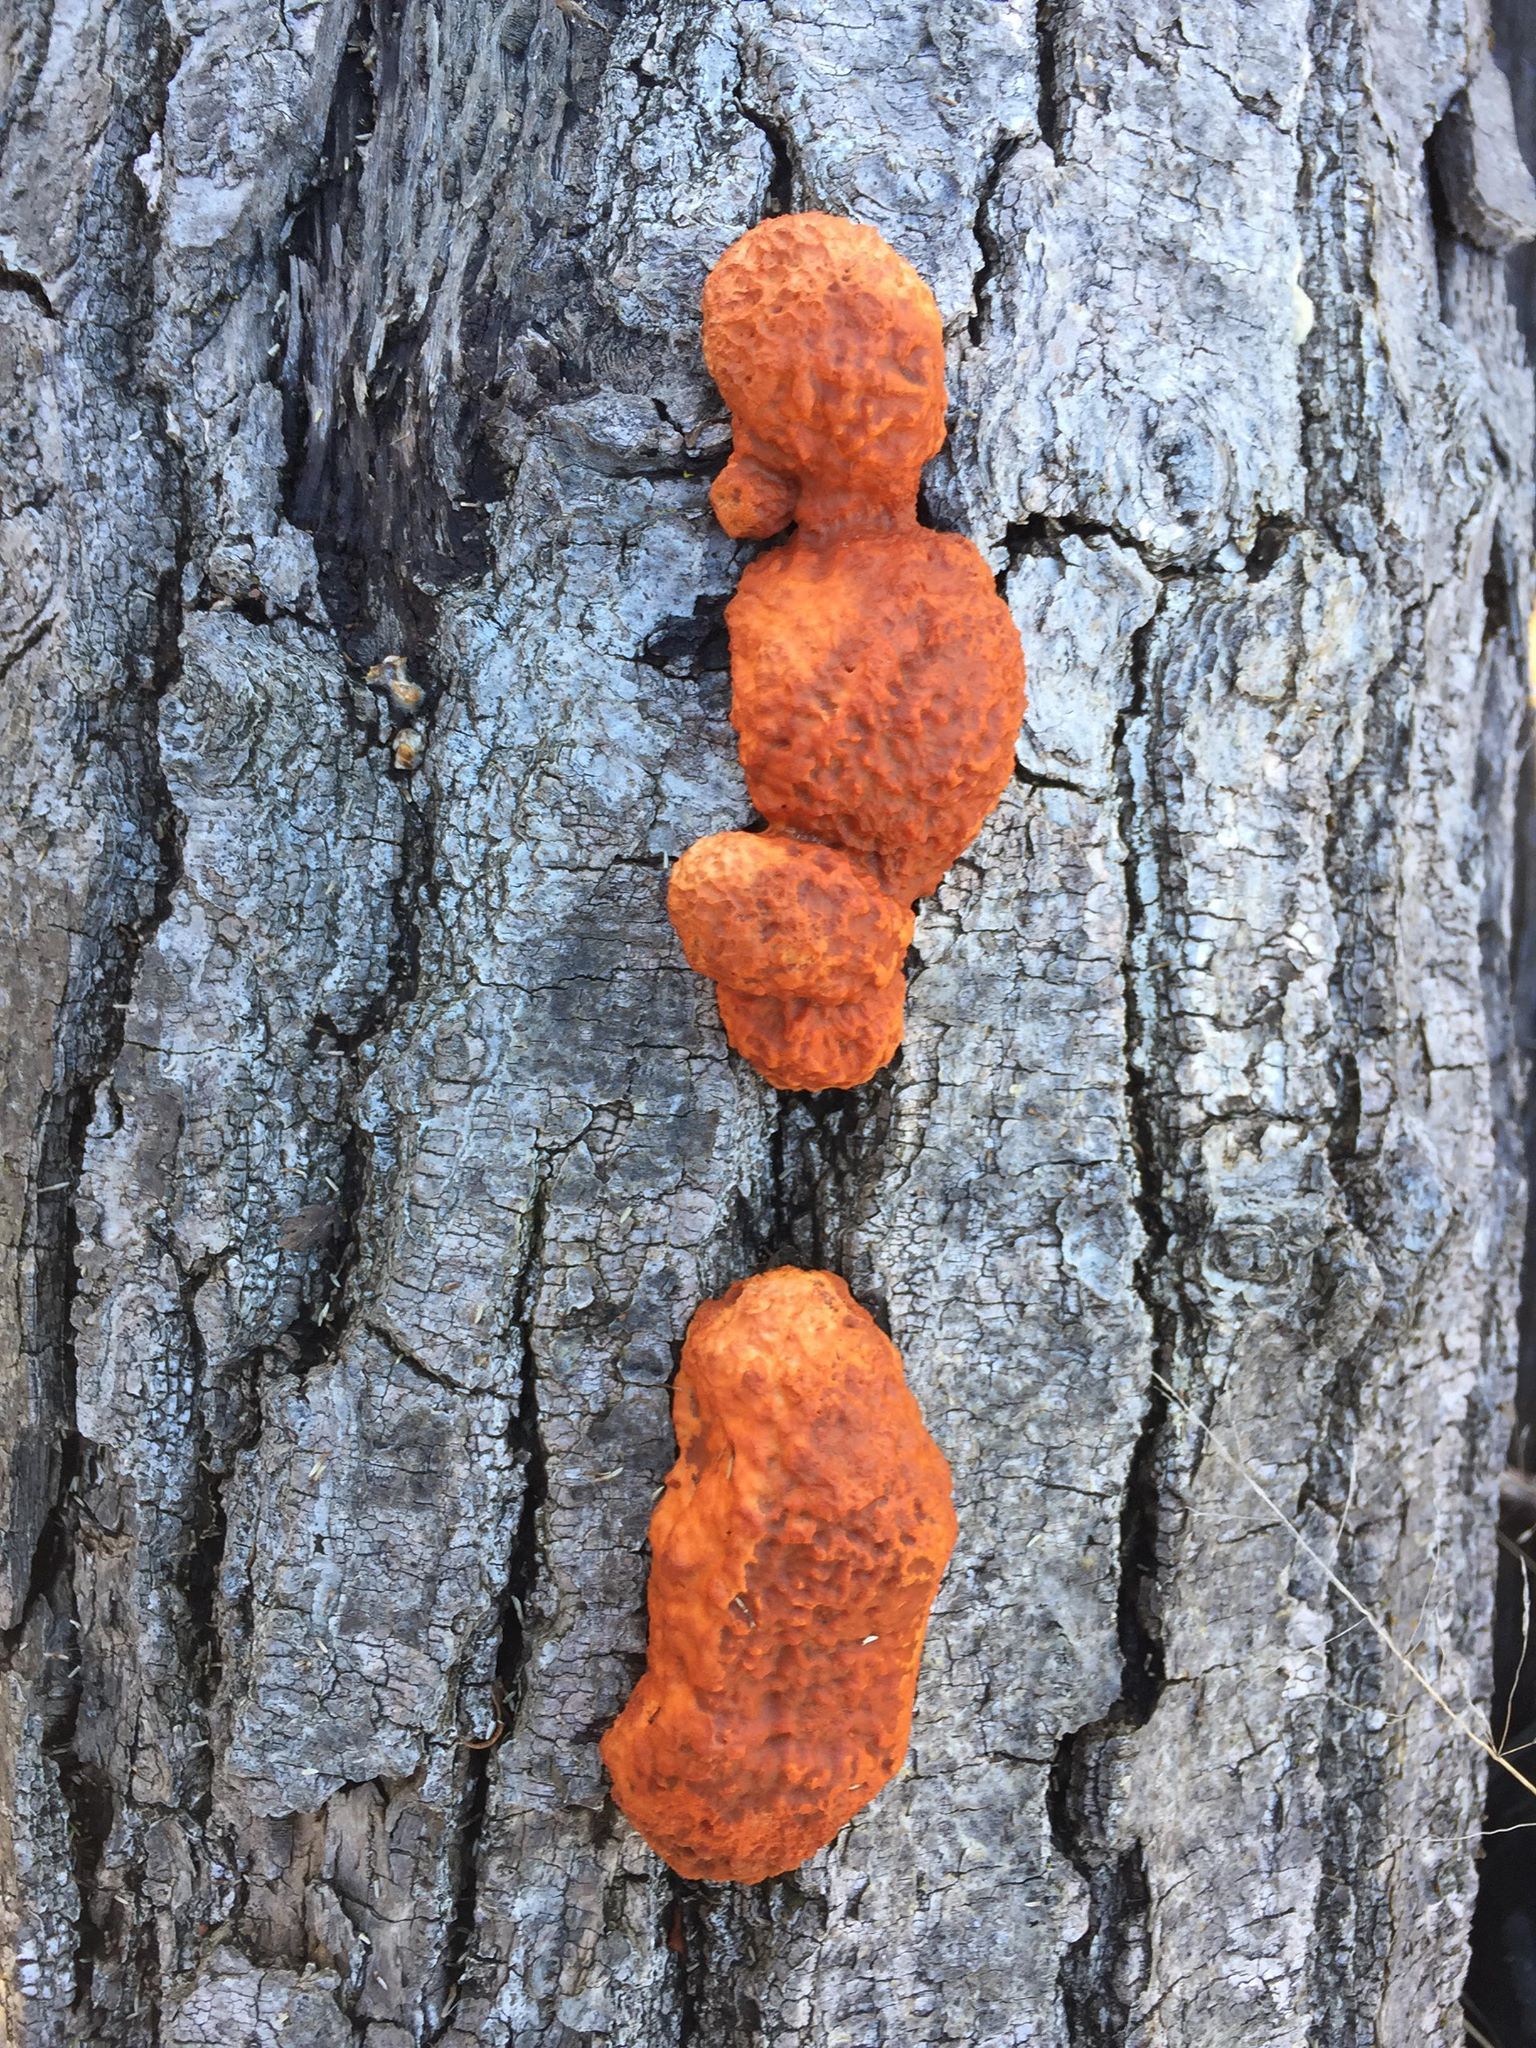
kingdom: Fungi
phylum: Basidiomycota
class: Agaricomycetes
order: Polyporales
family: Polyporaceae
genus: Trametes
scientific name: Trametes cinnabarina
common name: Northern cinnabar polypore
